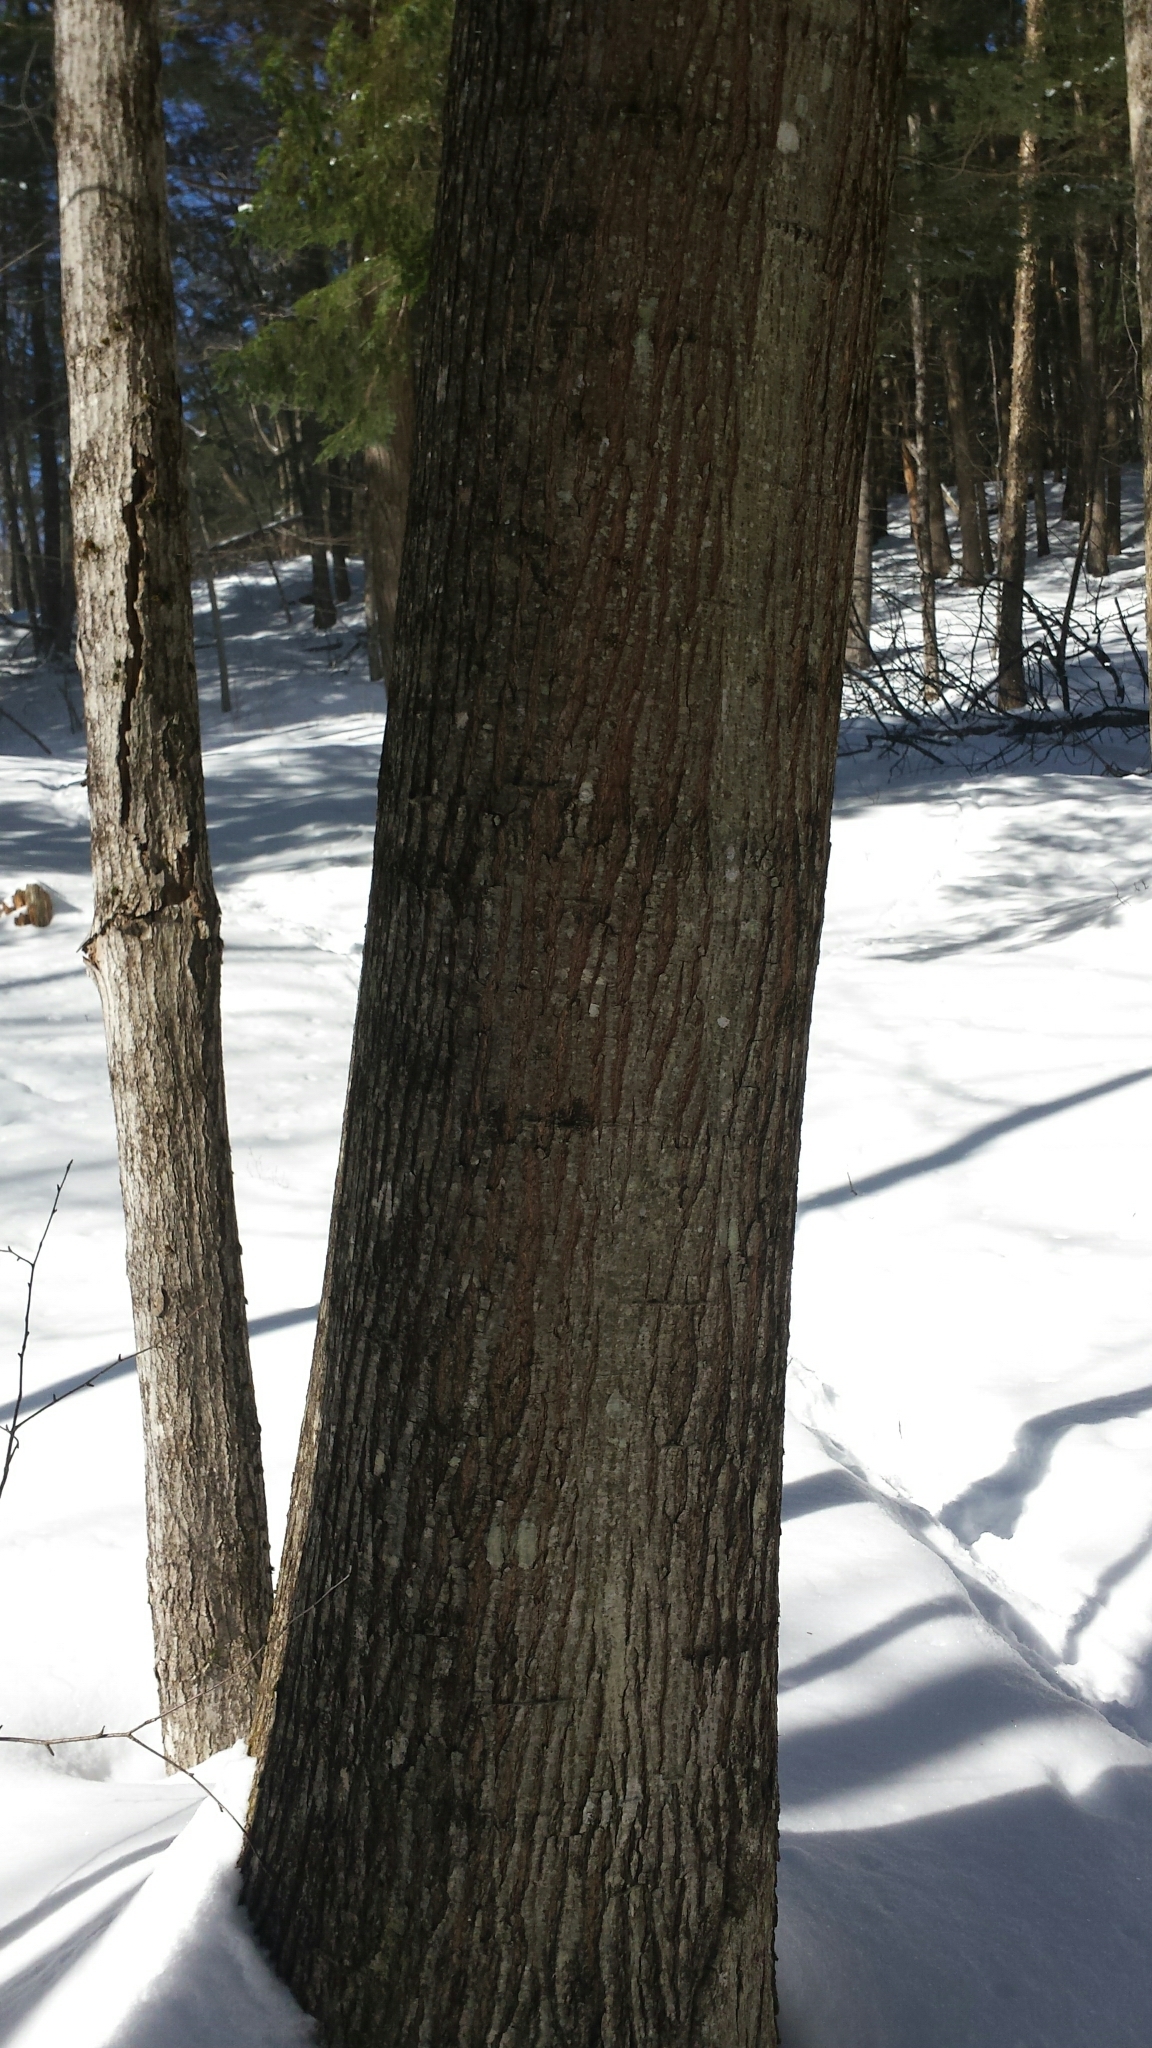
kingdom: Plantae
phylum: Tracheophyta
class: Magnoliopsida
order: Fagales
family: Fagaceae
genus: Quercus
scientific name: Quercus rubra
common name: Red oak
